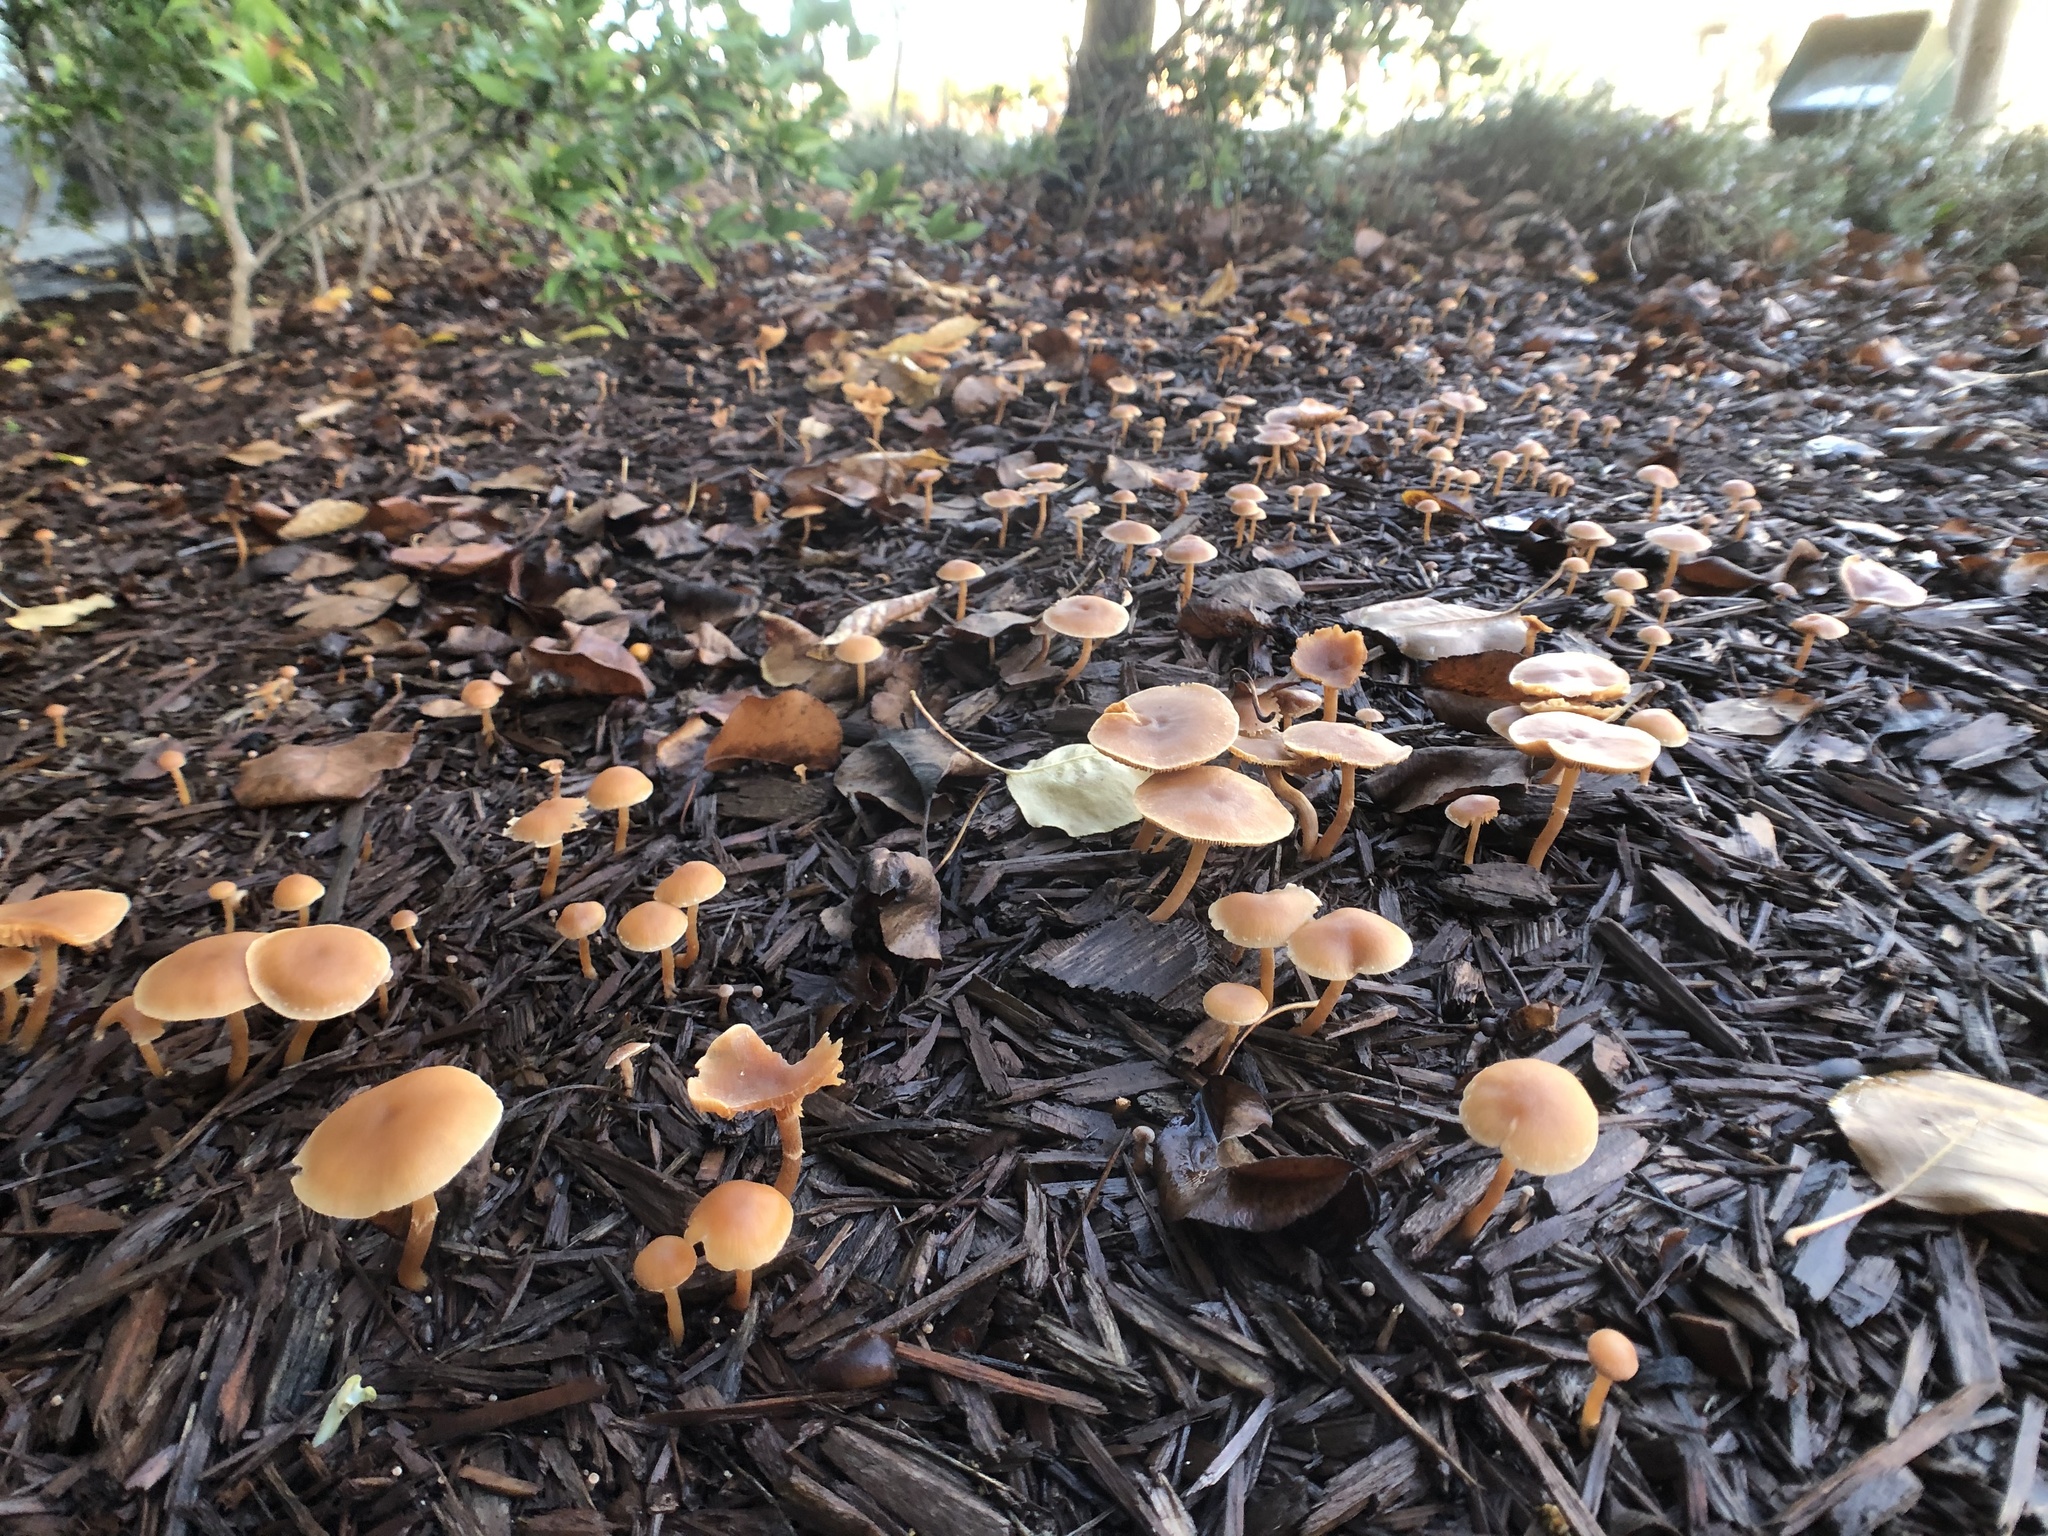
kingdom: Fungi
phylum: Basidiomycota
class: Agaricomycetes
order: Agaricales
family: Tubariaceae
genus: Tubaria
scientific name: Tubaria furfuracea
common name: Scurfy twiglet
